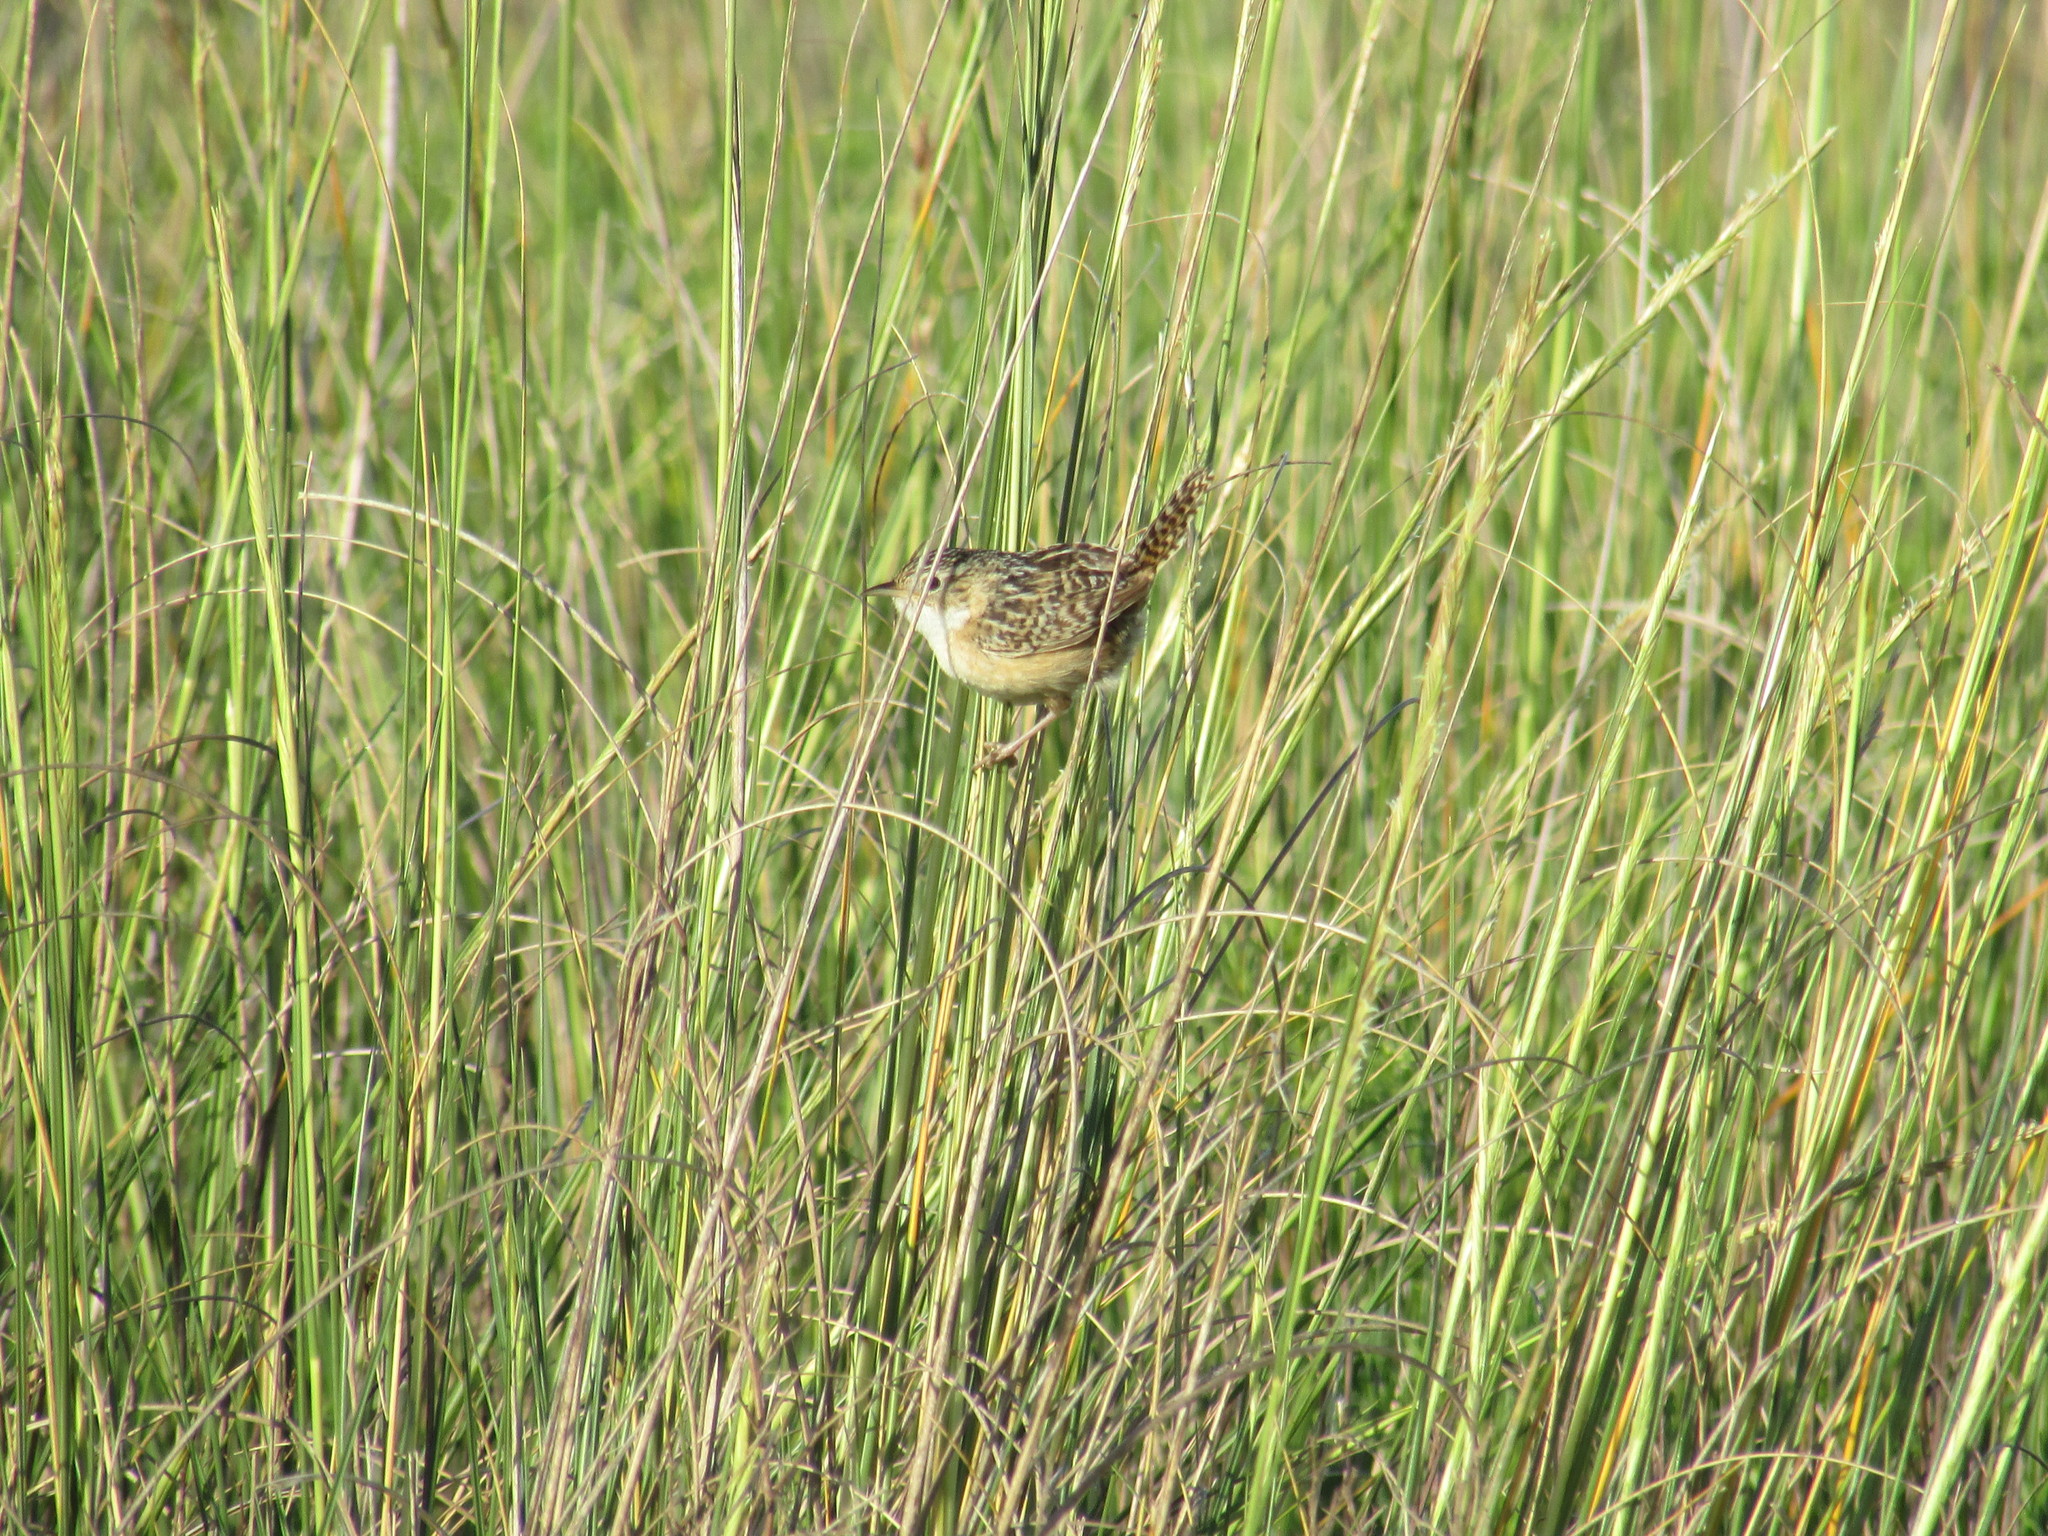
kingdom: Animalia
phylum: Chordata
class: Aves
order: Passeriformes
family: Troglodytidae
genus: Cistothorus
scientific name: Cistothorus platensis
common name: Sedge wren
